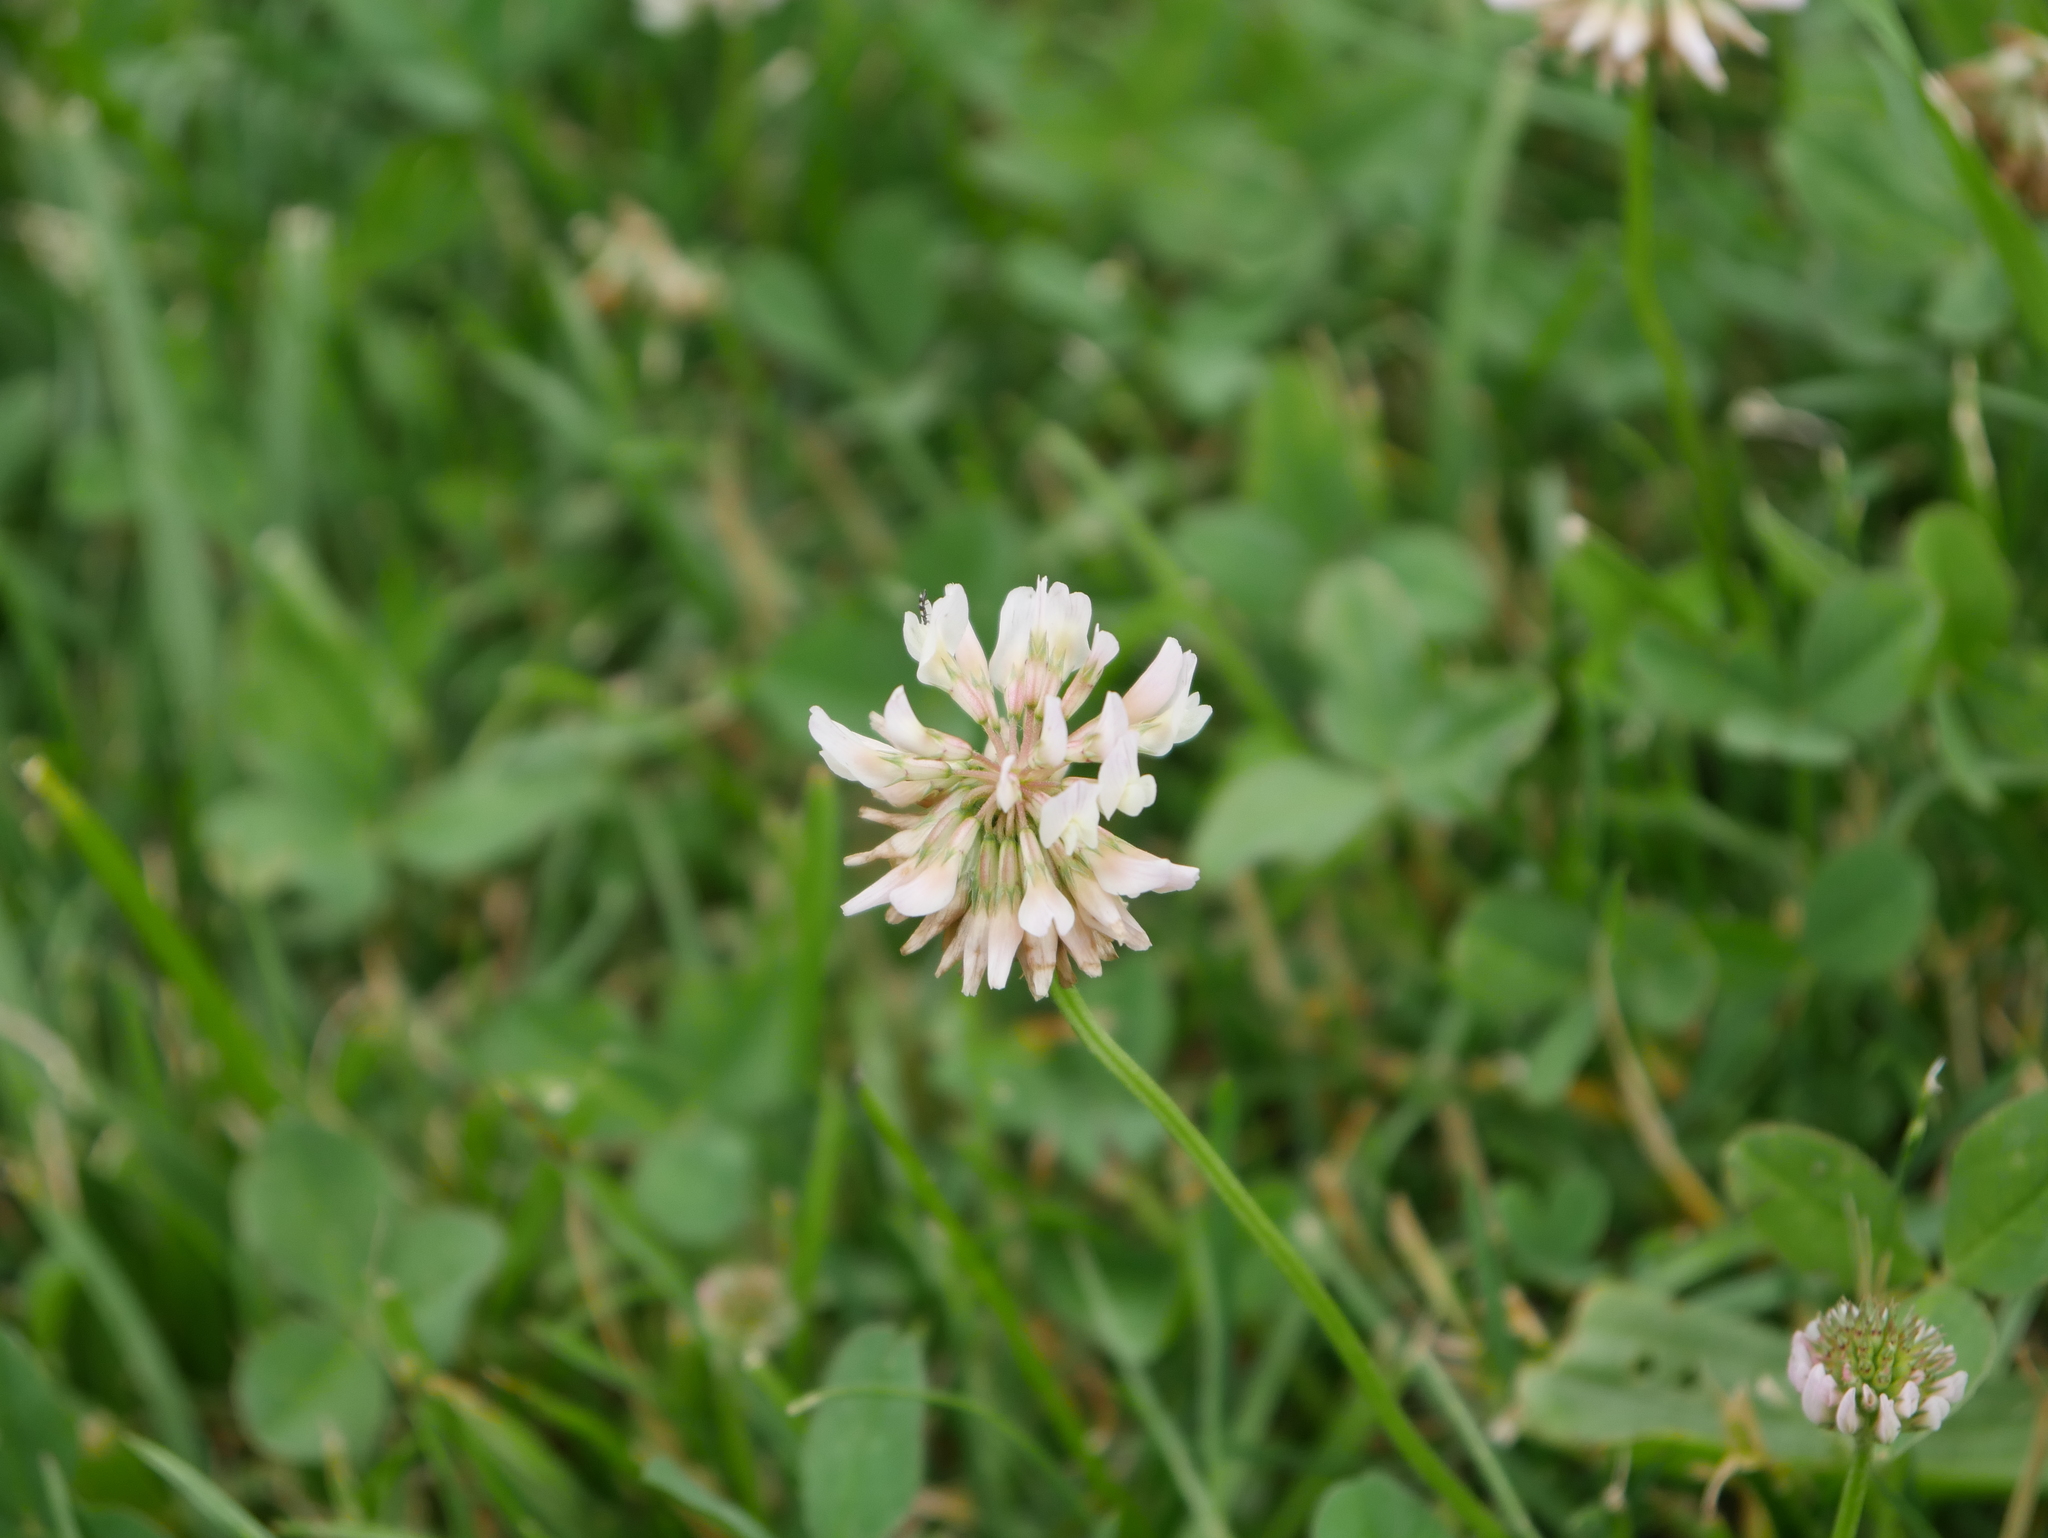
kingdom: Plantae
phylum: Tracheophyta
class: Magnoliopsida
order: Fabales
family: Fabaceae
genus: Trifolium
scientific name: Trifolium repens
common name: White clover
